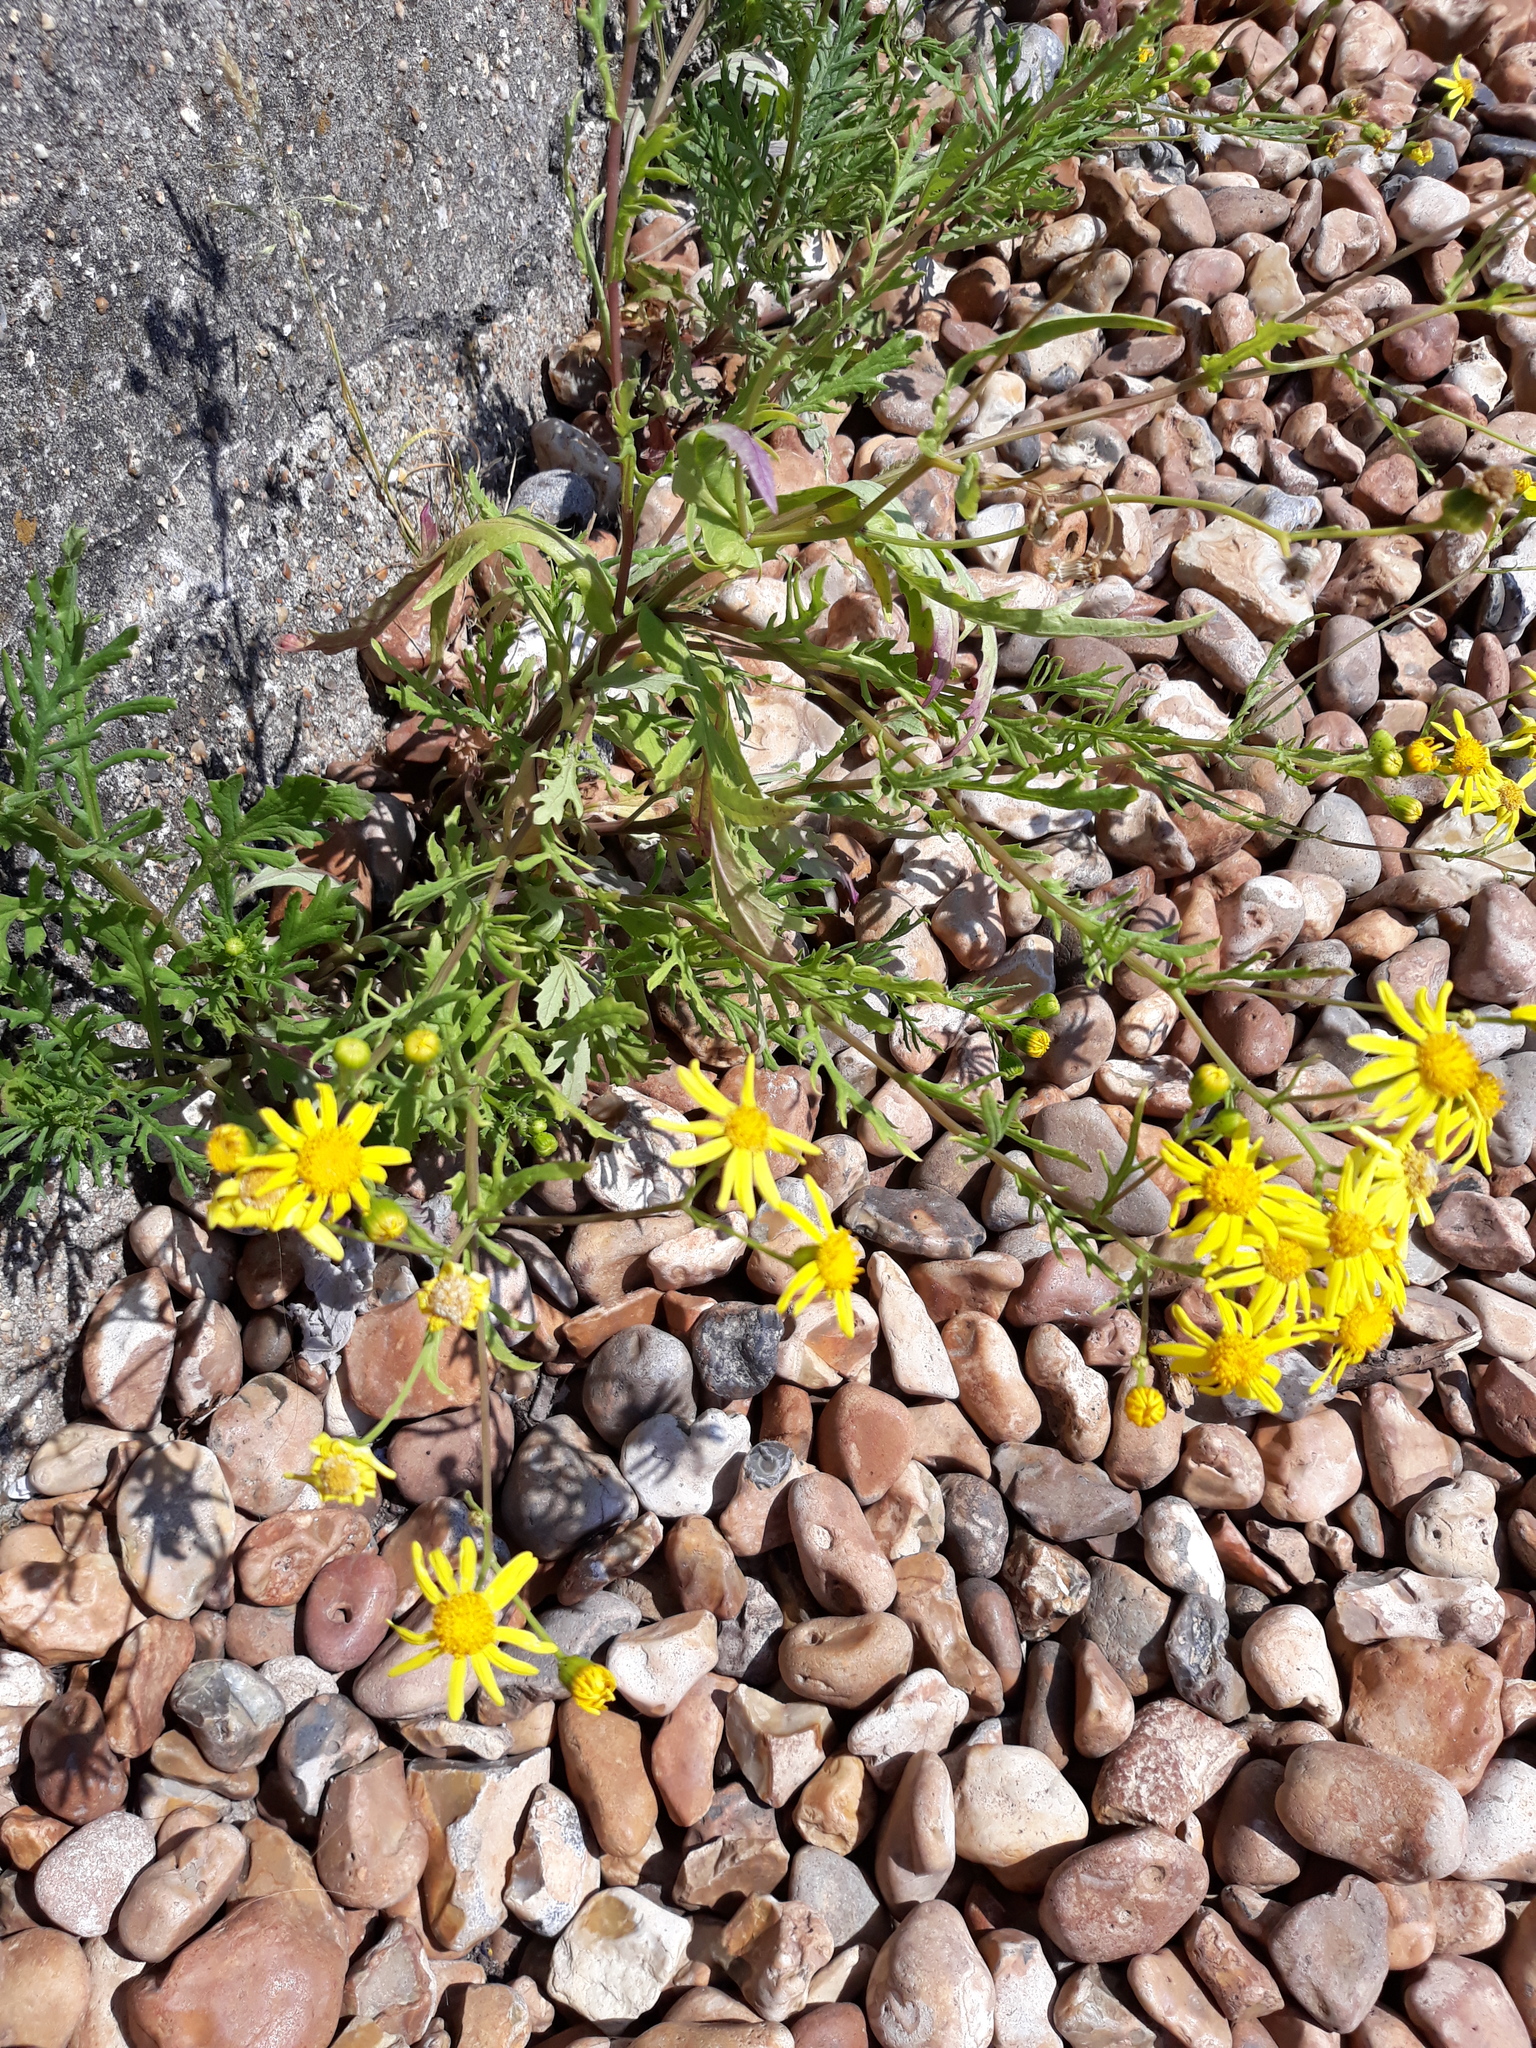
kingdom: Plantae
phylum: Tracheophyta
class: Magnoliopsida
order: Asterales
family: Asteraceae
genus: Senecio
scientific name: Senecio squalidus
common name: Oxford ragwort
